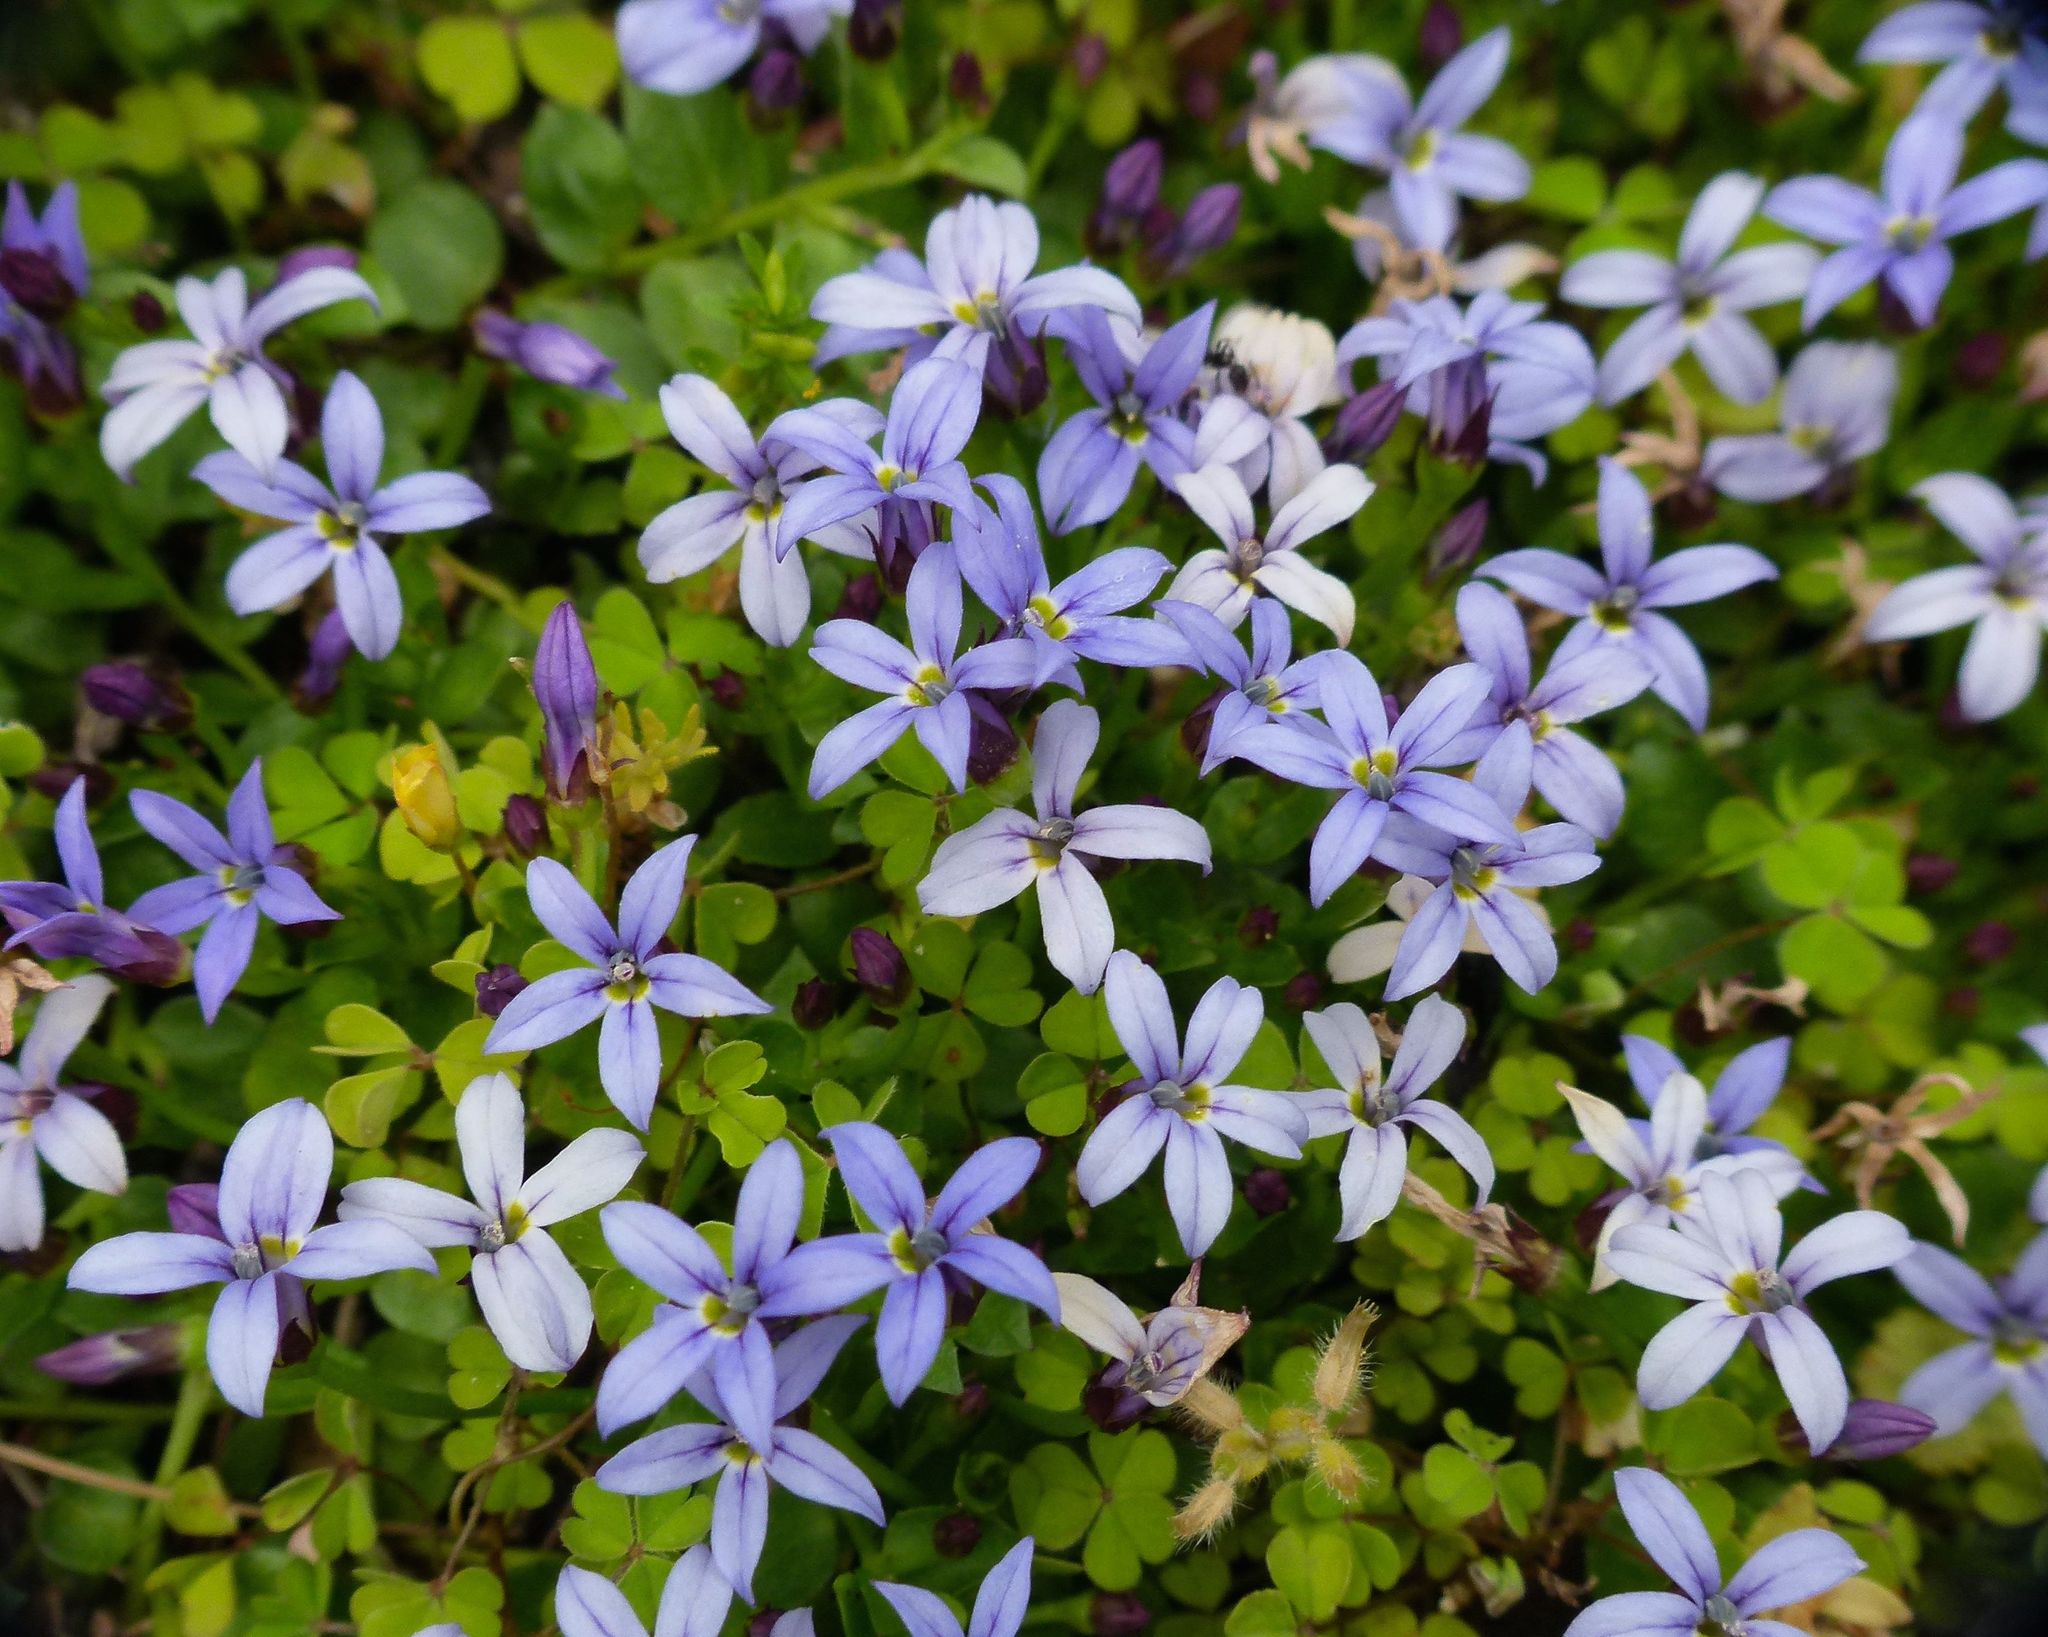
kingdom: Plantae
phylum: Tracheophyta
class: Magnoliopsida
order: Asterales
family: Campanulaceae
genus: Lobelia
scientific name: Lobelia pedunculata
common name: Matted pratia
